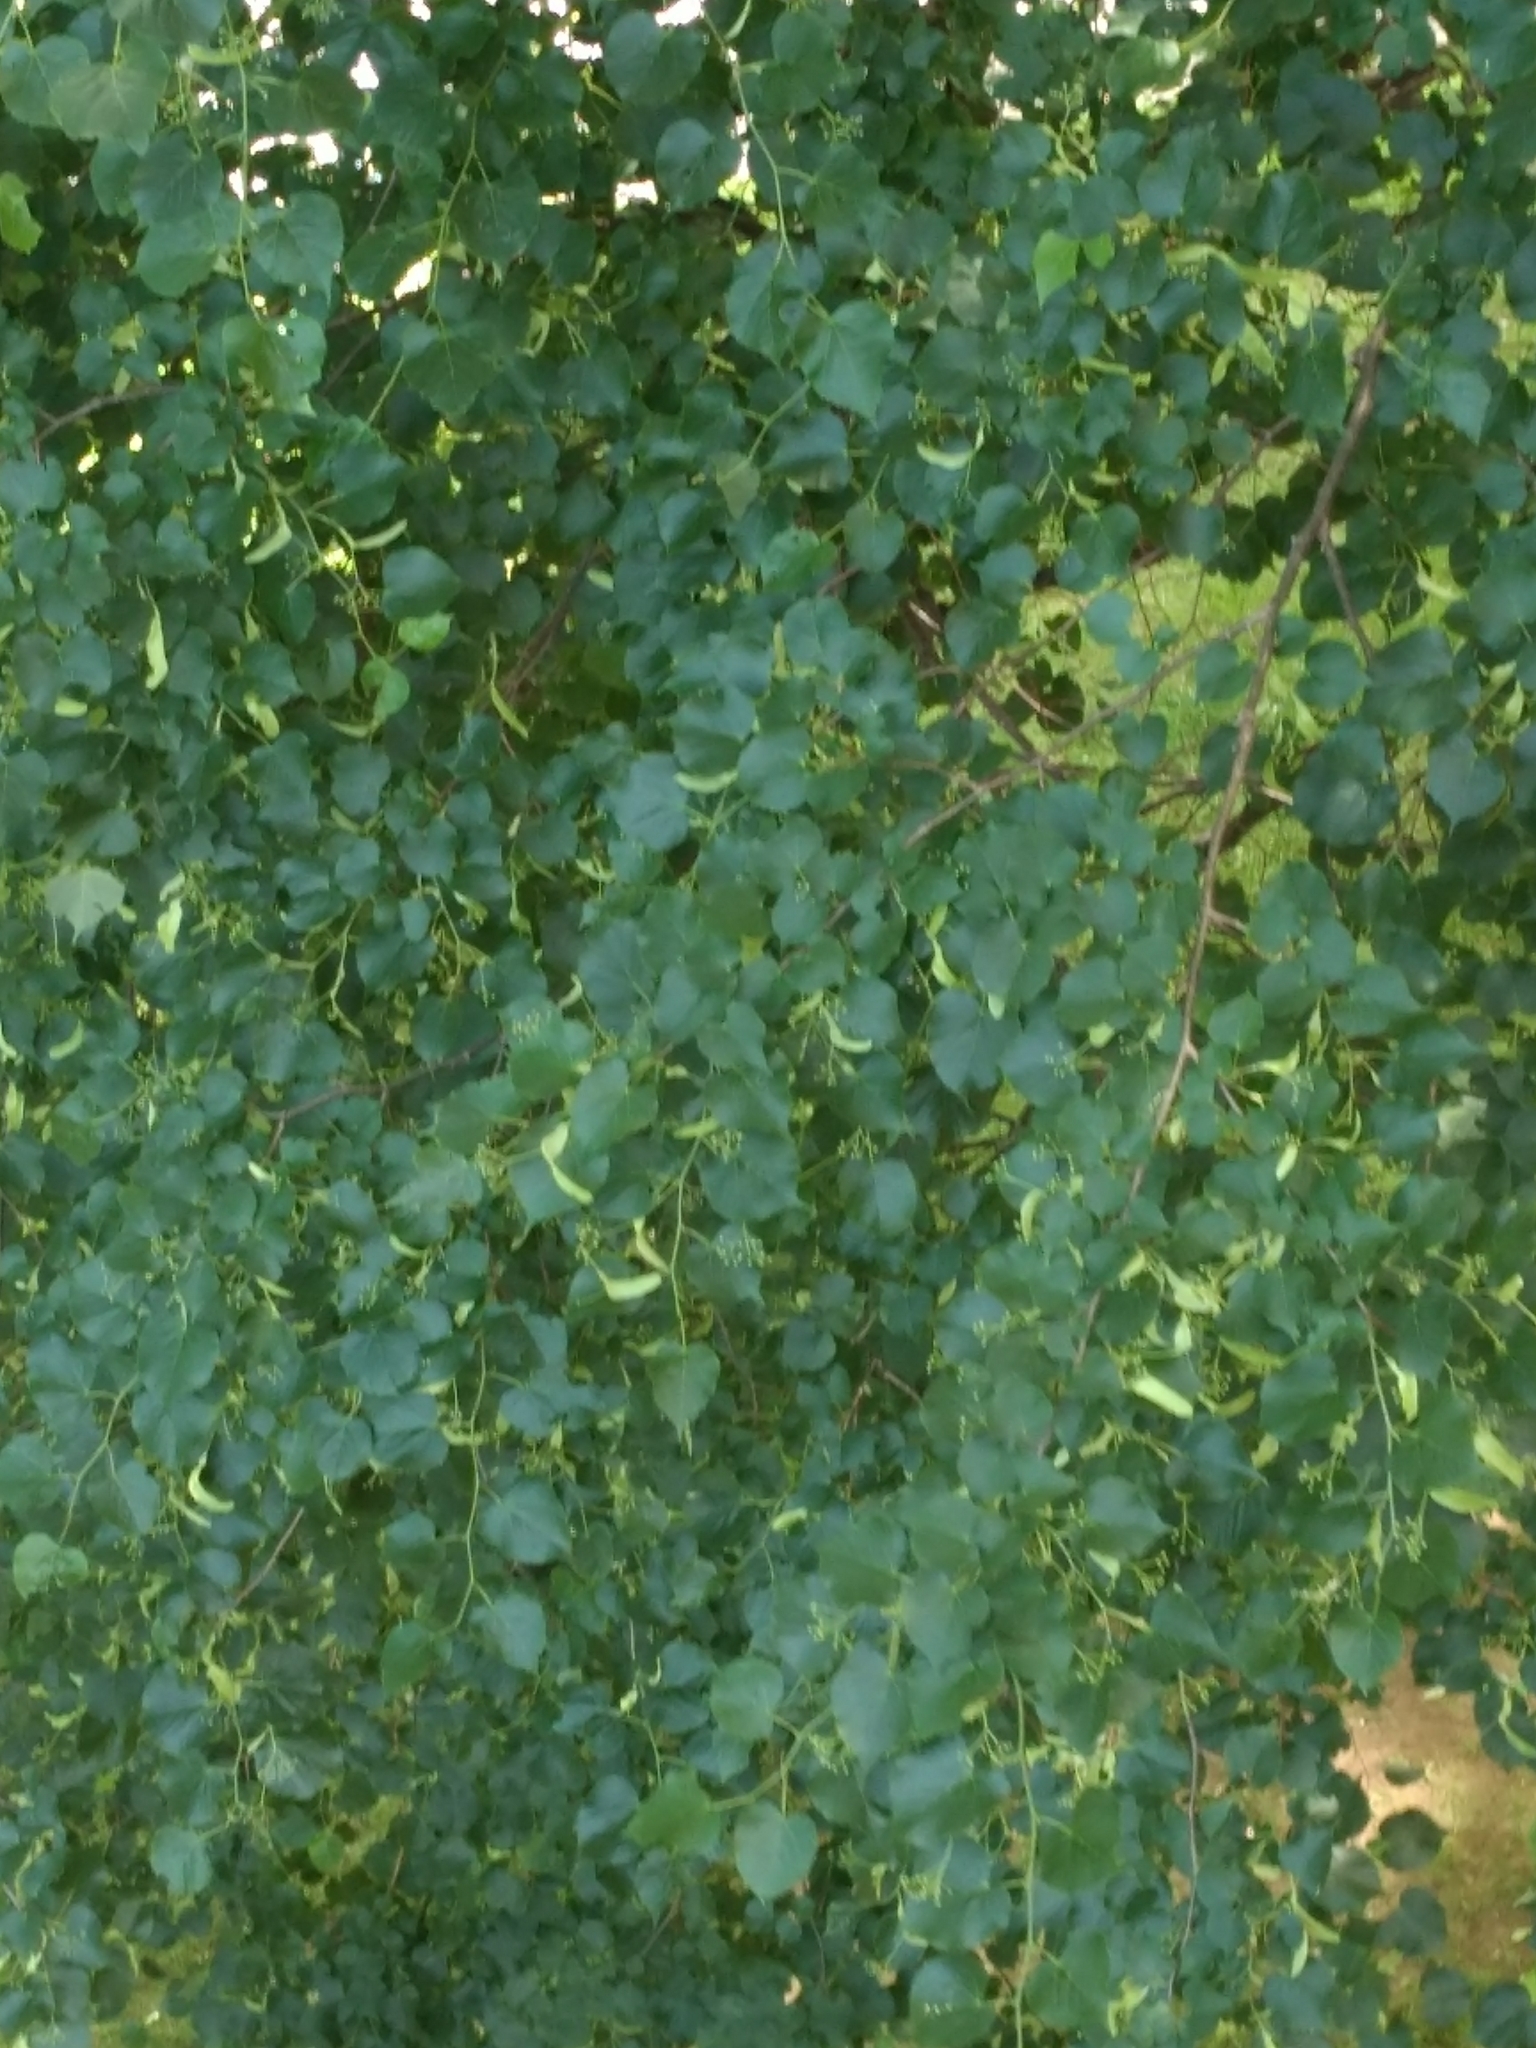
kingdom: Plantae
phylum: Tracheophyta
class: Magnoliopsida
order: Malvales
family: Malvaceae
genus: Tilia
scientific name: Tilia cordata
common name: Small-leaved lime
